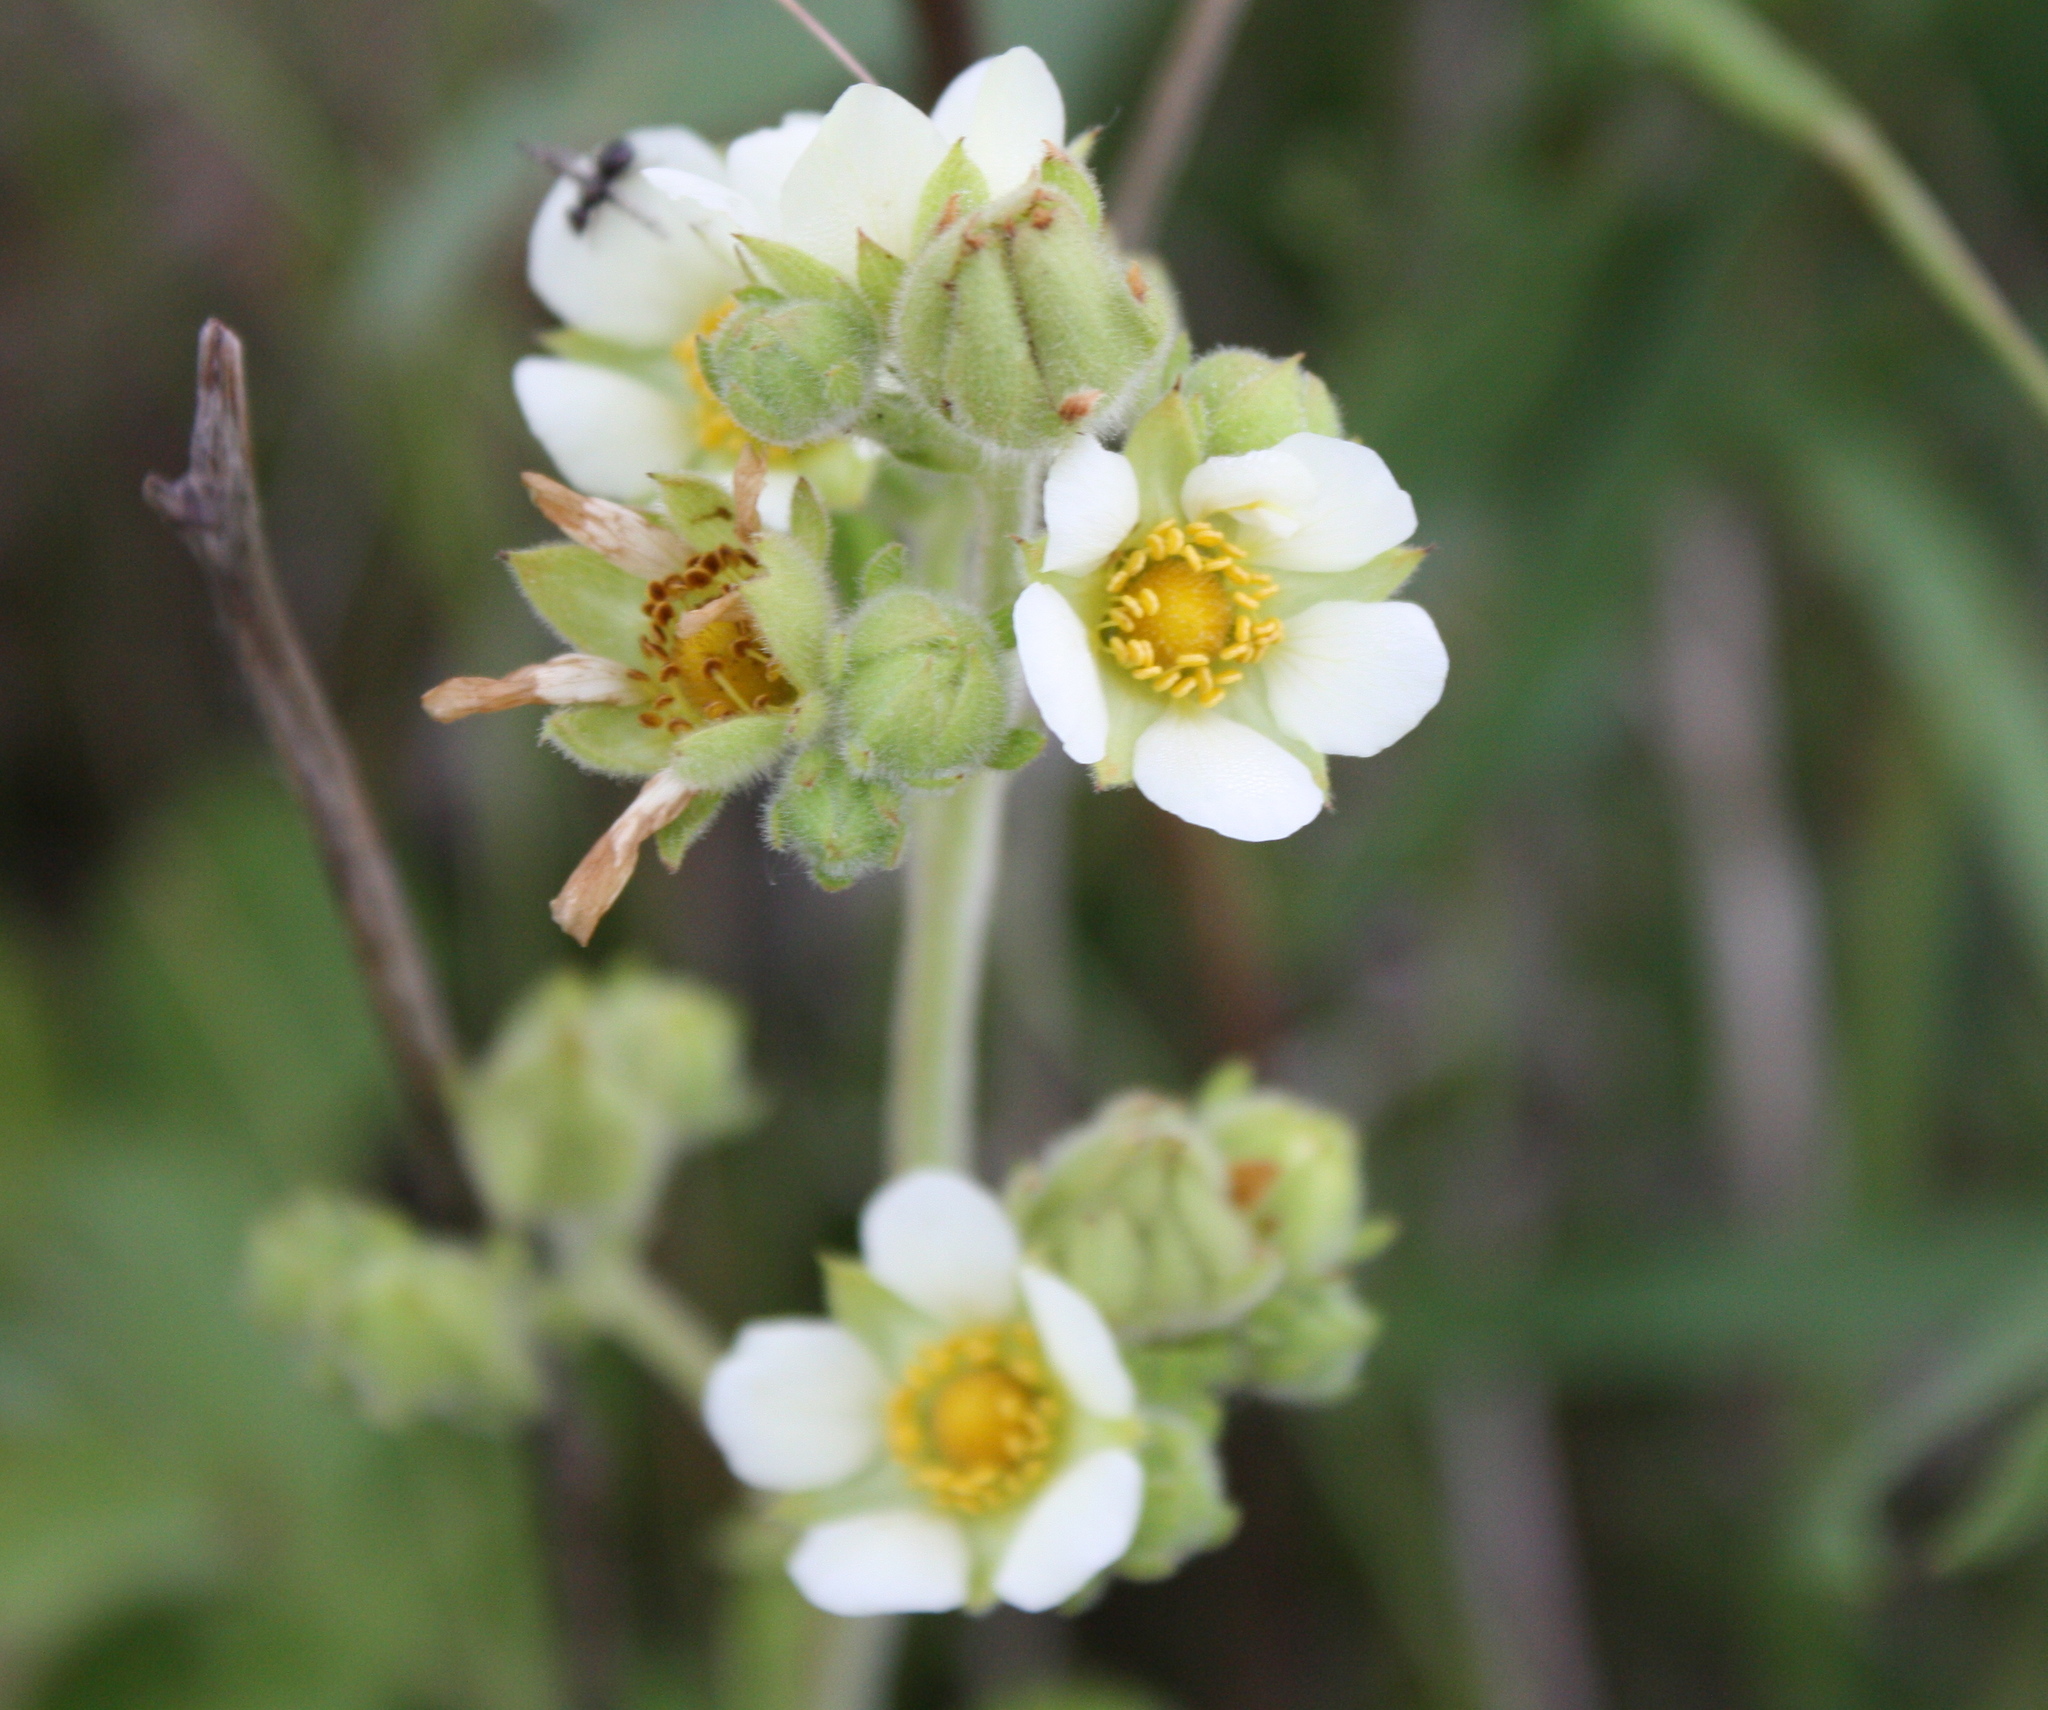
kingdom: Plantae
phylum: Tracheophyta
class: Magnoliopsida
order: Rosales
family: Rosaceae
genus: Drymocallis
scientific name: Drymocallis arguta
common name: Tall cinquefoil
